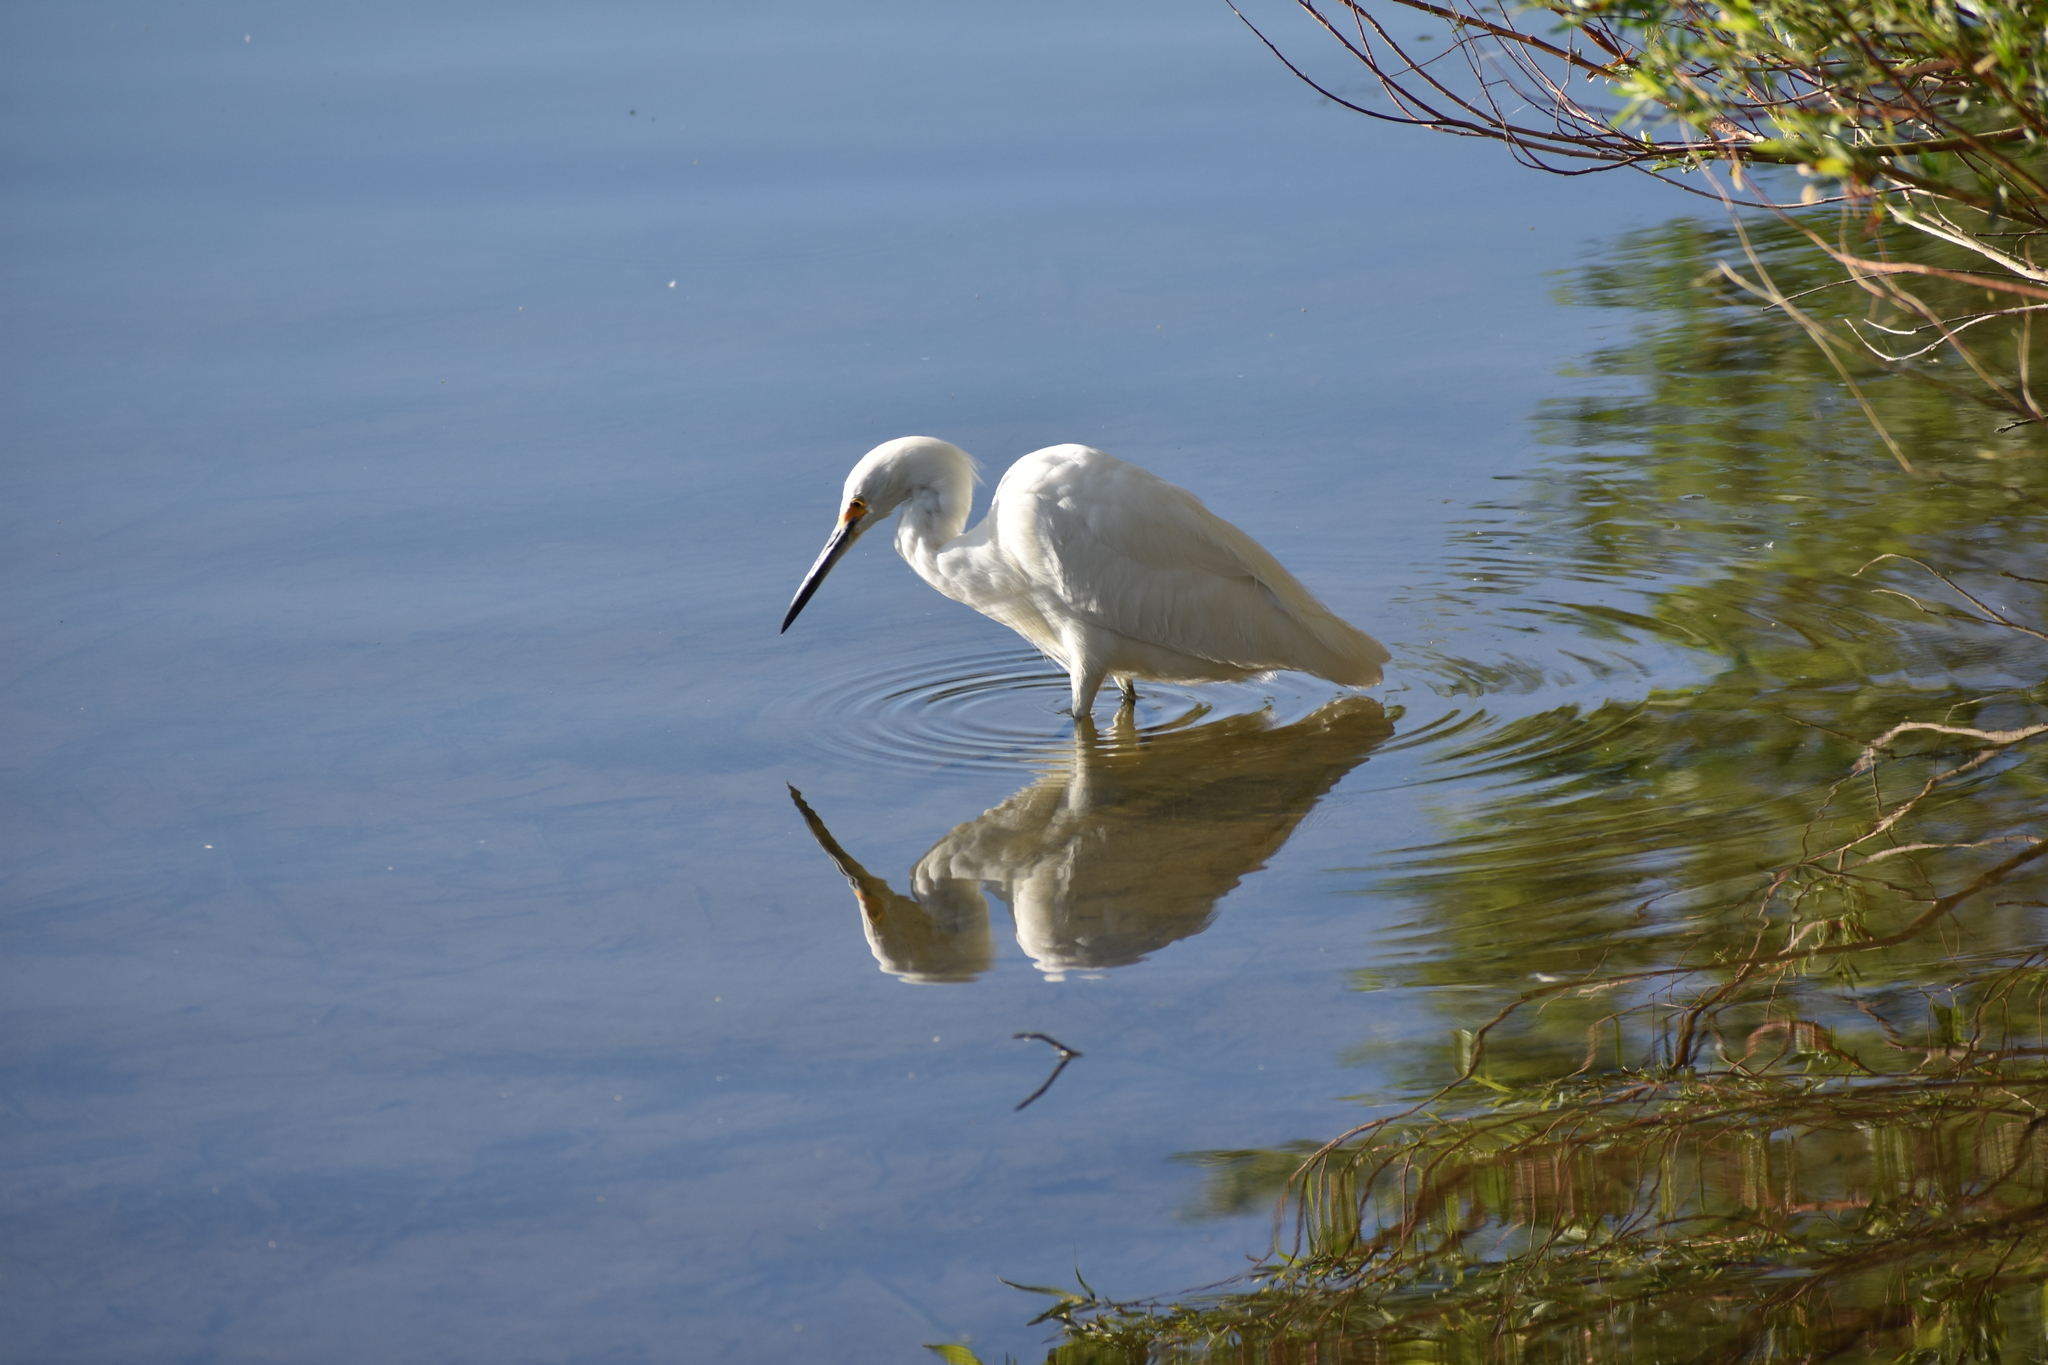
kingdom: Animalia
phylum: Chordata
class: Aves
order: Pelecaniformes
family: Ardeidae
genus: Egretta
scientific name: Egretta thula
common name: Snowy egret
